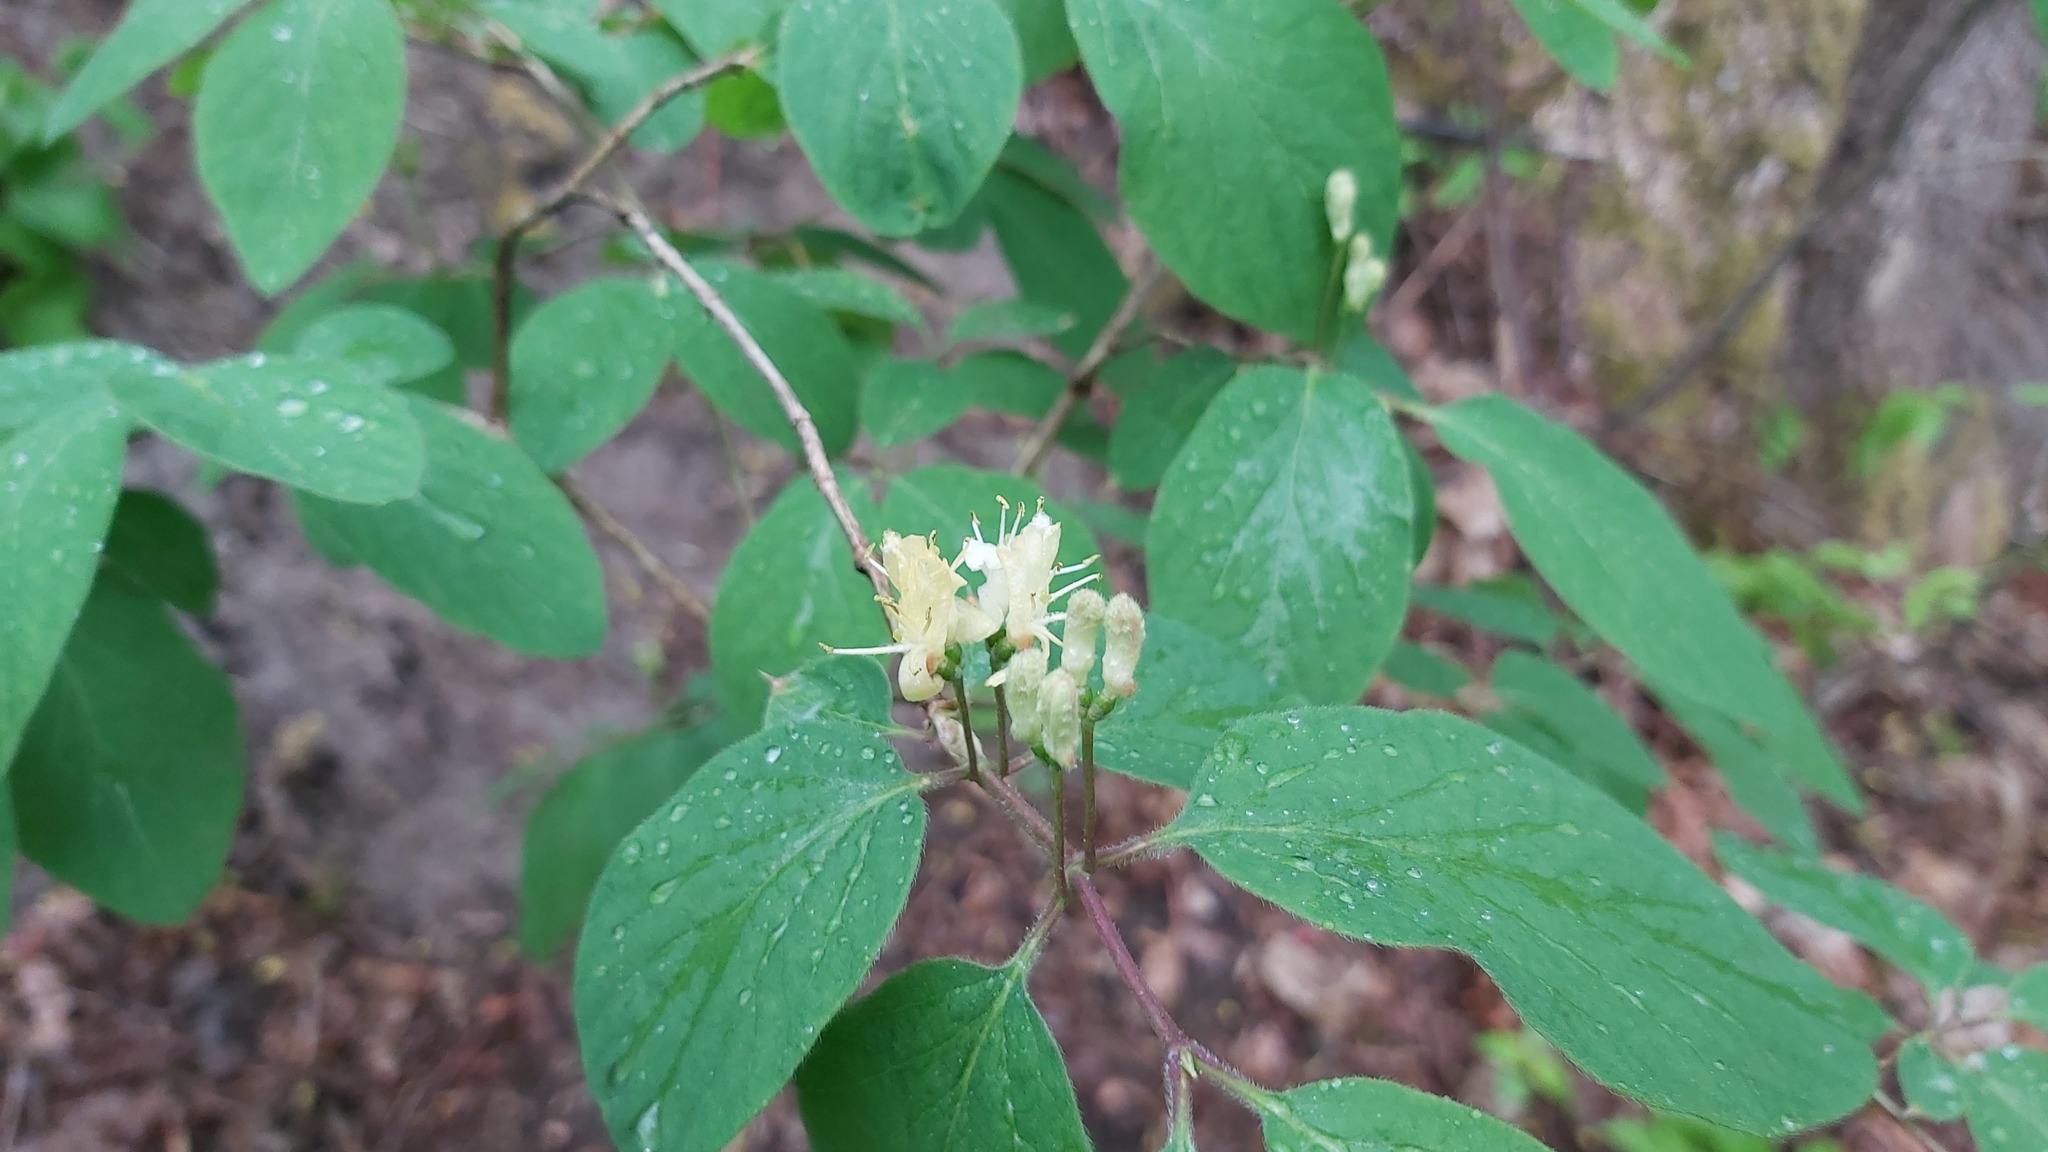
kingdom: Plantae
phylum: Tracheophyta
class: Magnoliopsida
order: Dipsacales
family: Caprifoliaceae
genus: Lonicera
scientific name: Lonicera xylosteum
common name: Fly honeysuckle
